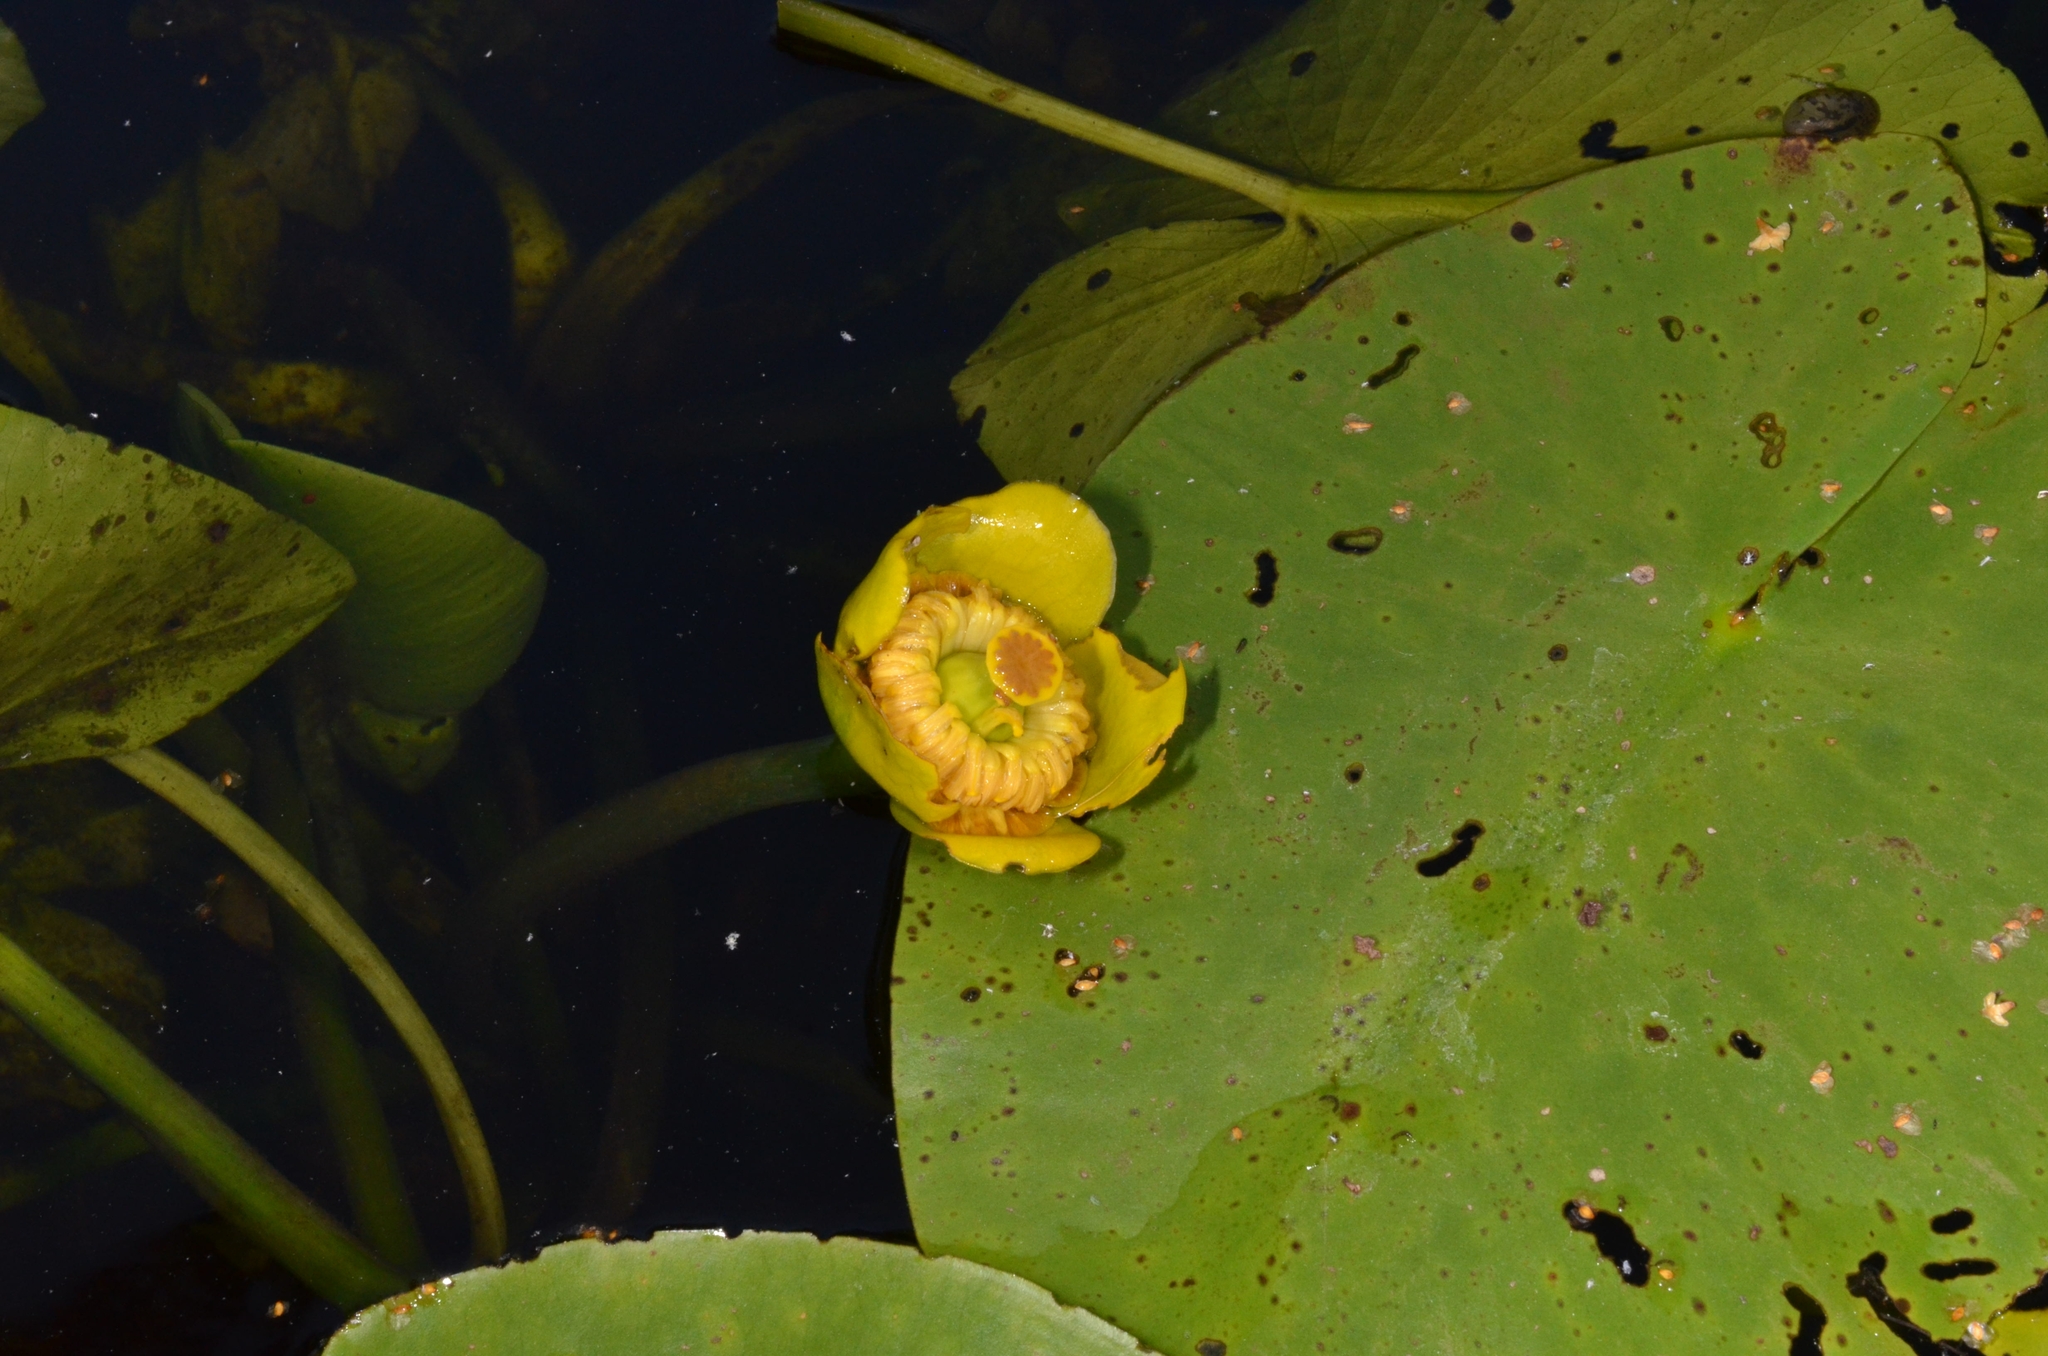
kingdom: Plantae
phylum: Tracheophyta
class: Magnoliopsida
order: Nymphaeales
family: Nymphaeaceae
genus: Nuphar
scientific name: Nuphar lutea
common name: Yellow water-lily
